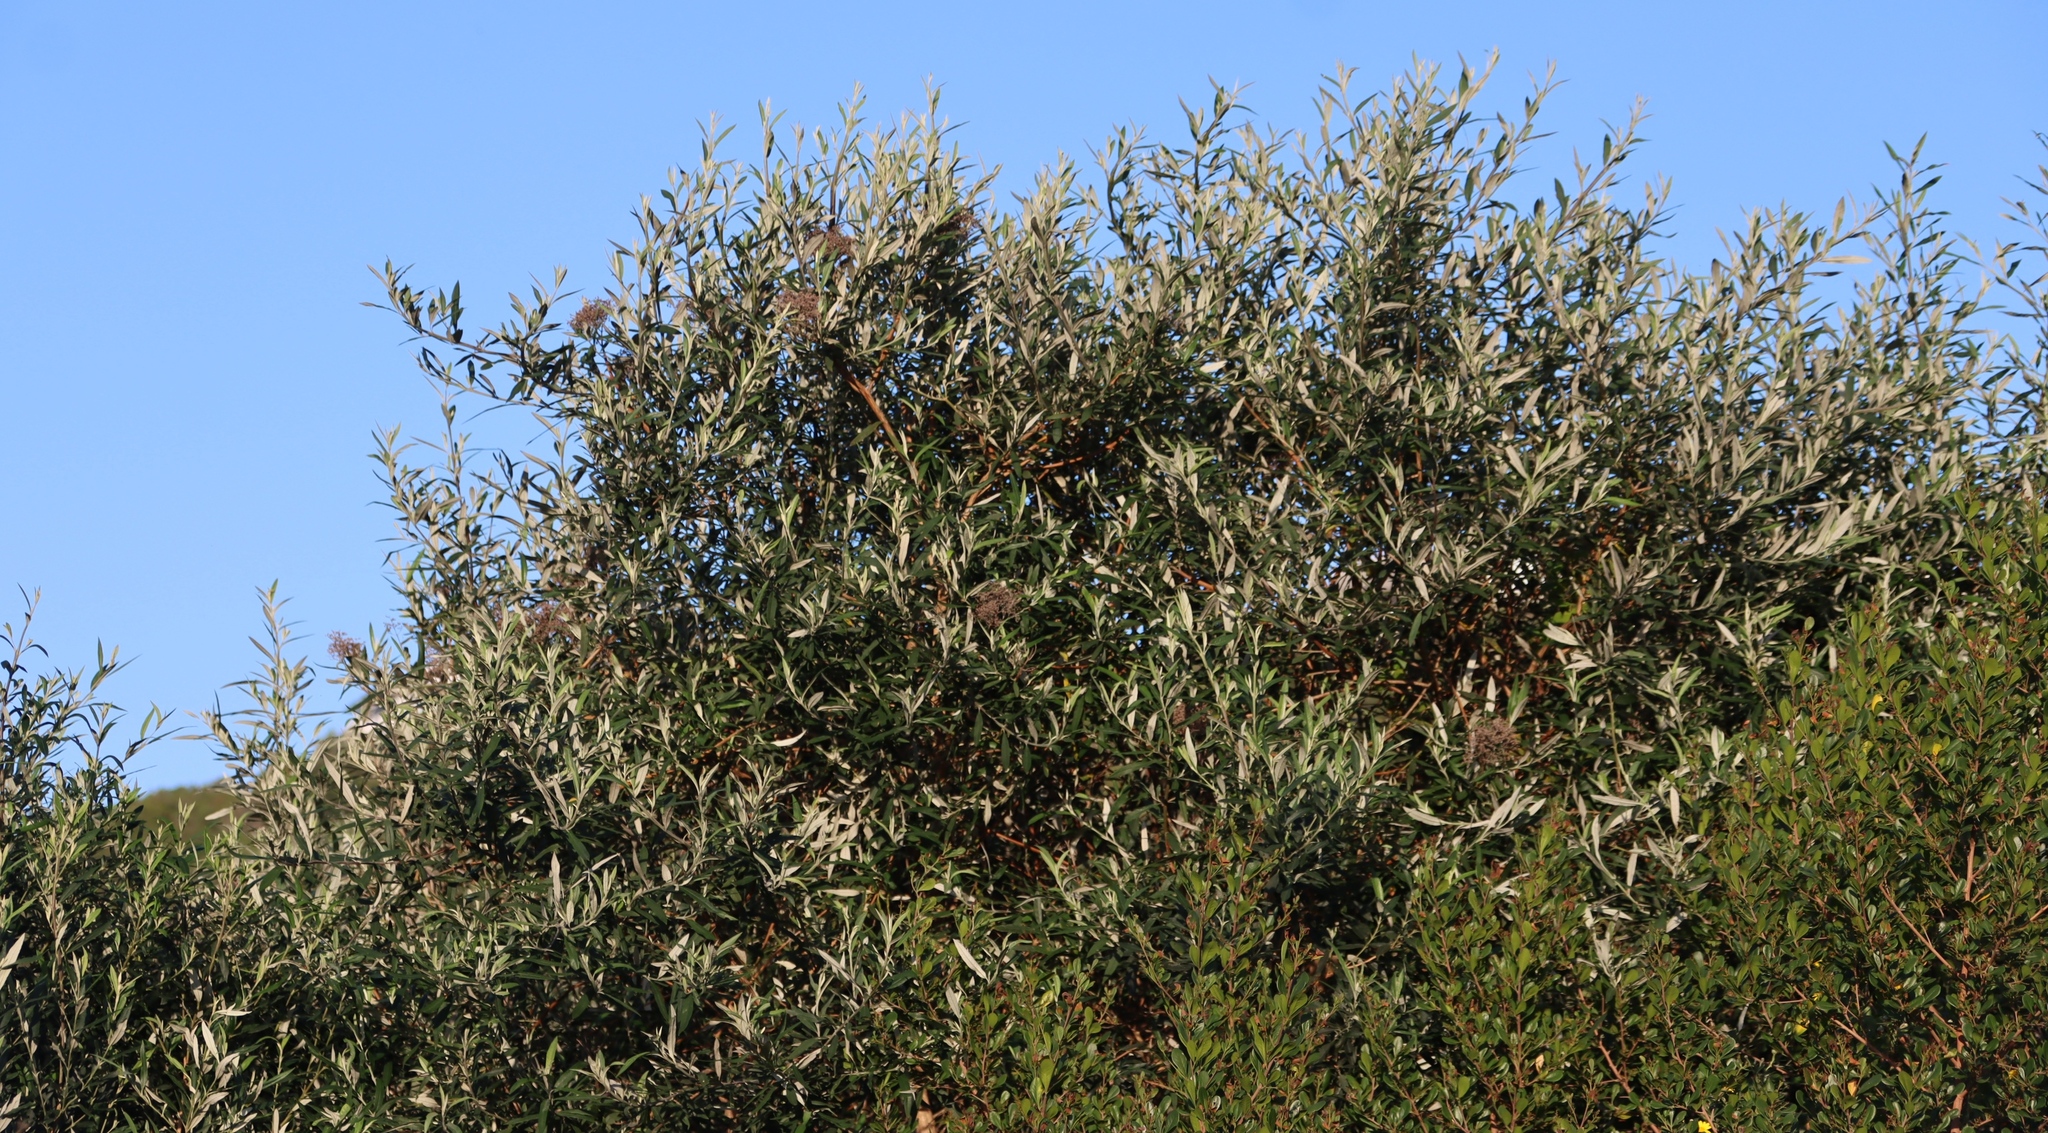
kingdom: Plantae
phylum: Tracheophyta
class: Magnoliopsida
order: Lamiales
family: Scrophulariaceae
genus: Buddleja
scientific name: Buddleja saligna
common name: False olive
